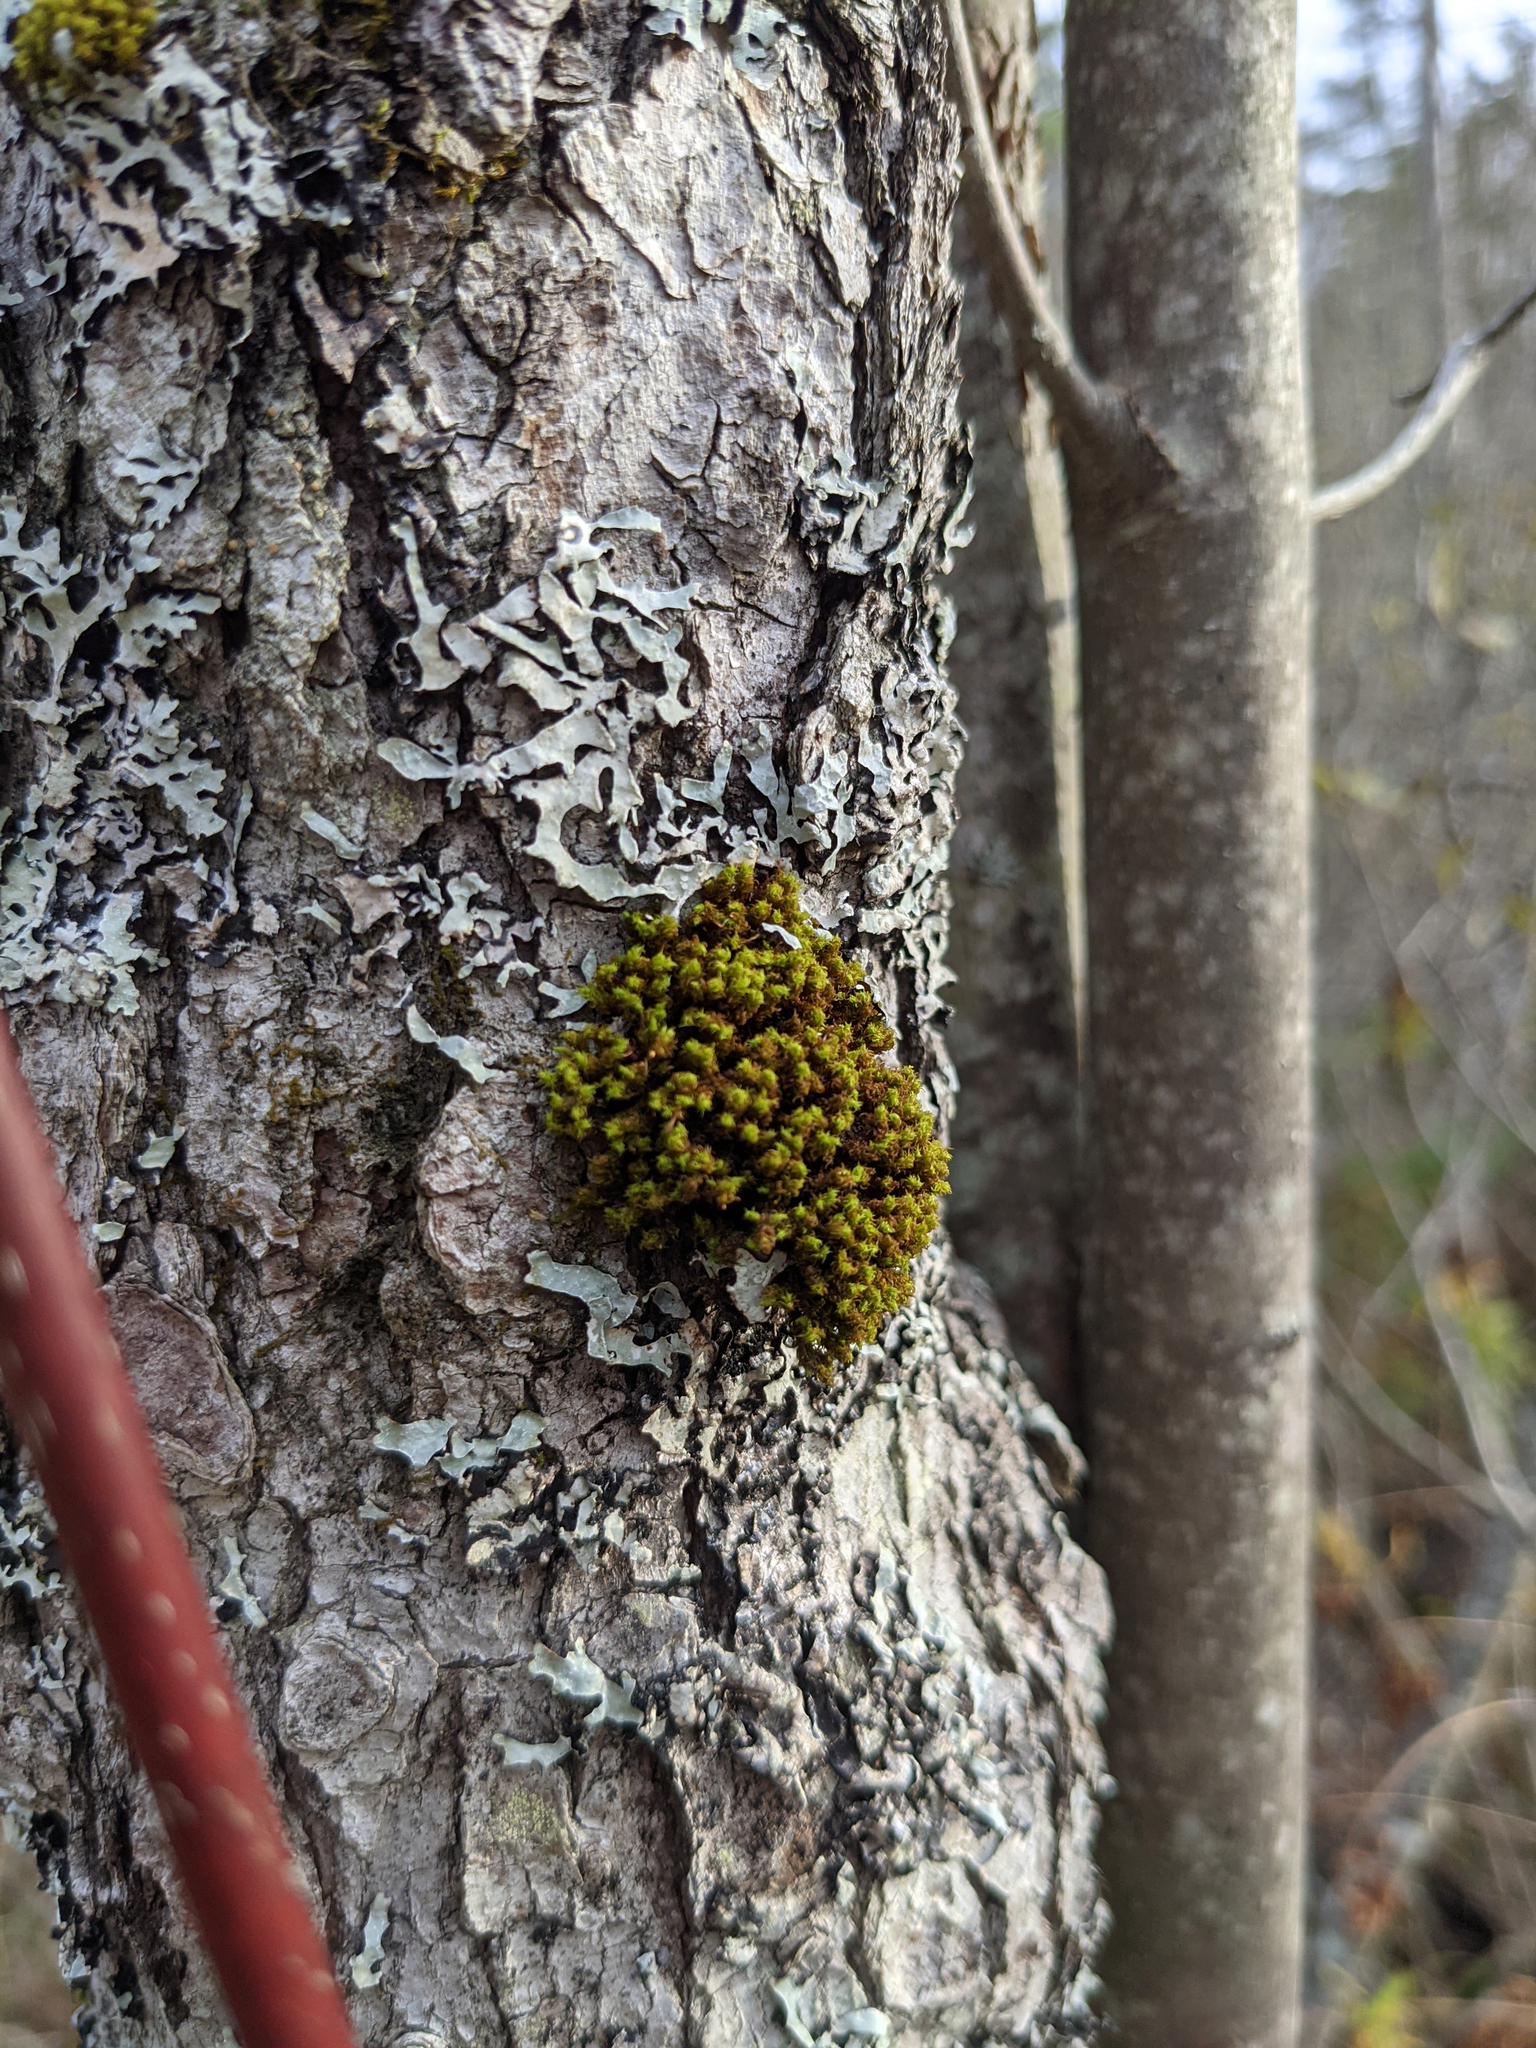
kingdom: Plantae
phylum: Bryophyta
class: Bryopsida
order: Orthotrichales
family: Orthotrichaceae
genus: Ulota
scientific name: Ulota crispa
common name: Crisped pincushion moss
